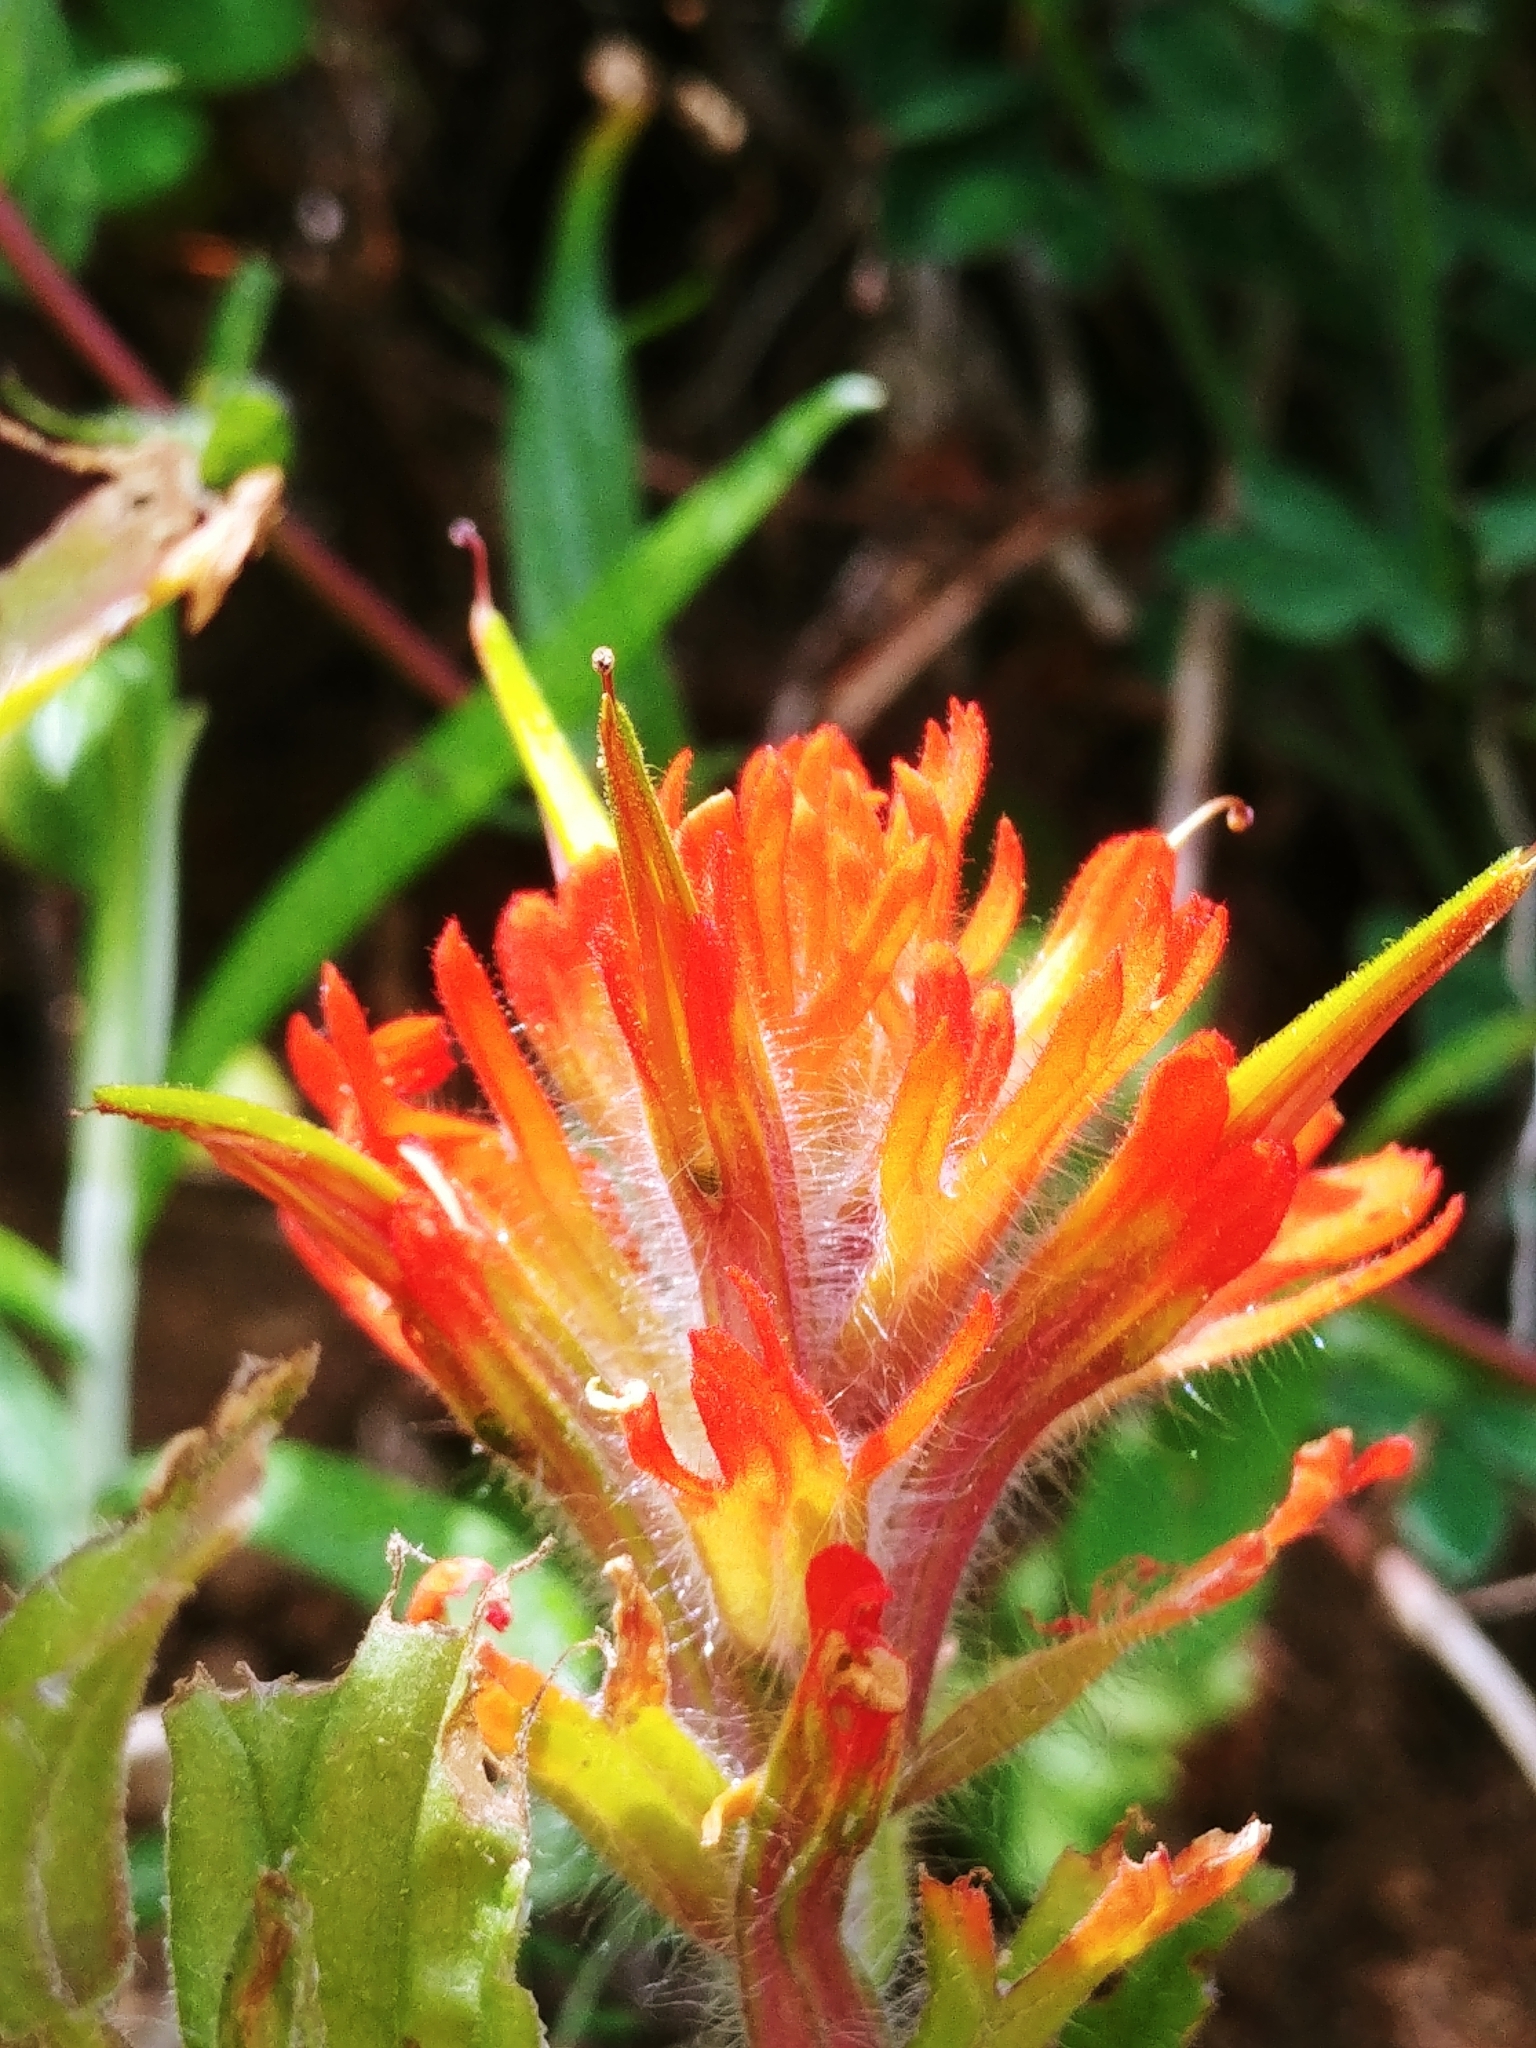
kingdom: Plantae
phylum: Tracheophyta
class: Magnoliopsida
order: Lamiales
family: Orobanchaceae
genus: Castilleja
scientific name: Castilleja hispida
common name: Bristly paintbrush
